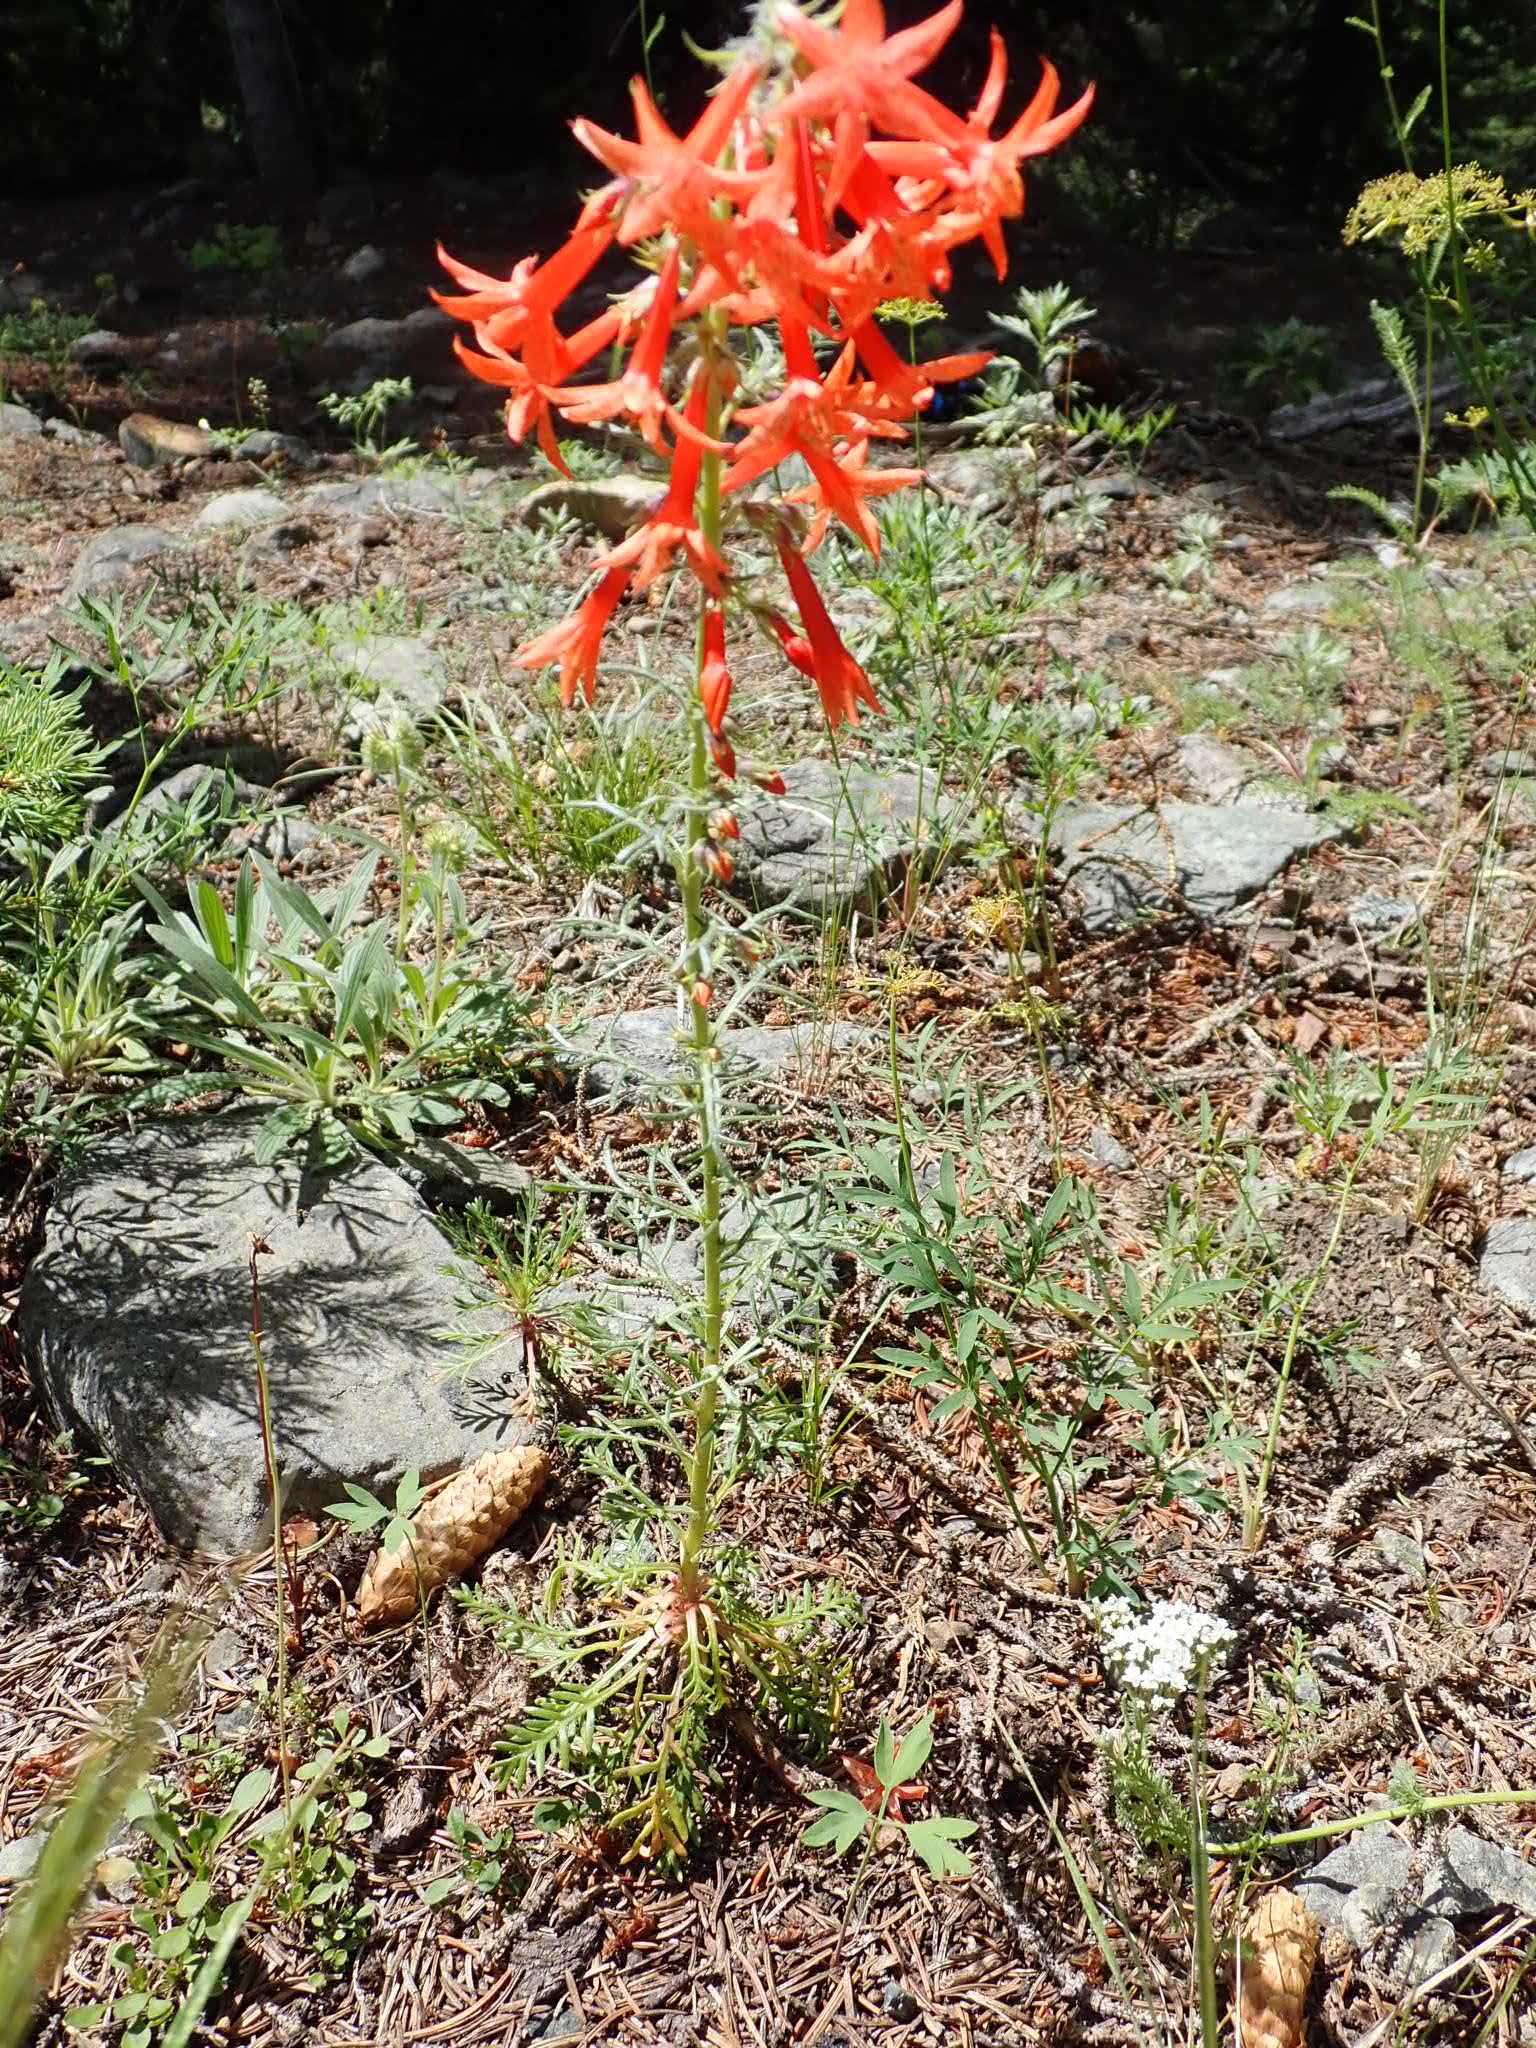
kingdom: Plantae
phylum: Tracheophyta
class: Magnoliopsida
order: Ericales
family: Polemoniaceae
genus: Ipomopsis
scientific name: Ipomopsis aggregata
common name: Scarlet gilia
